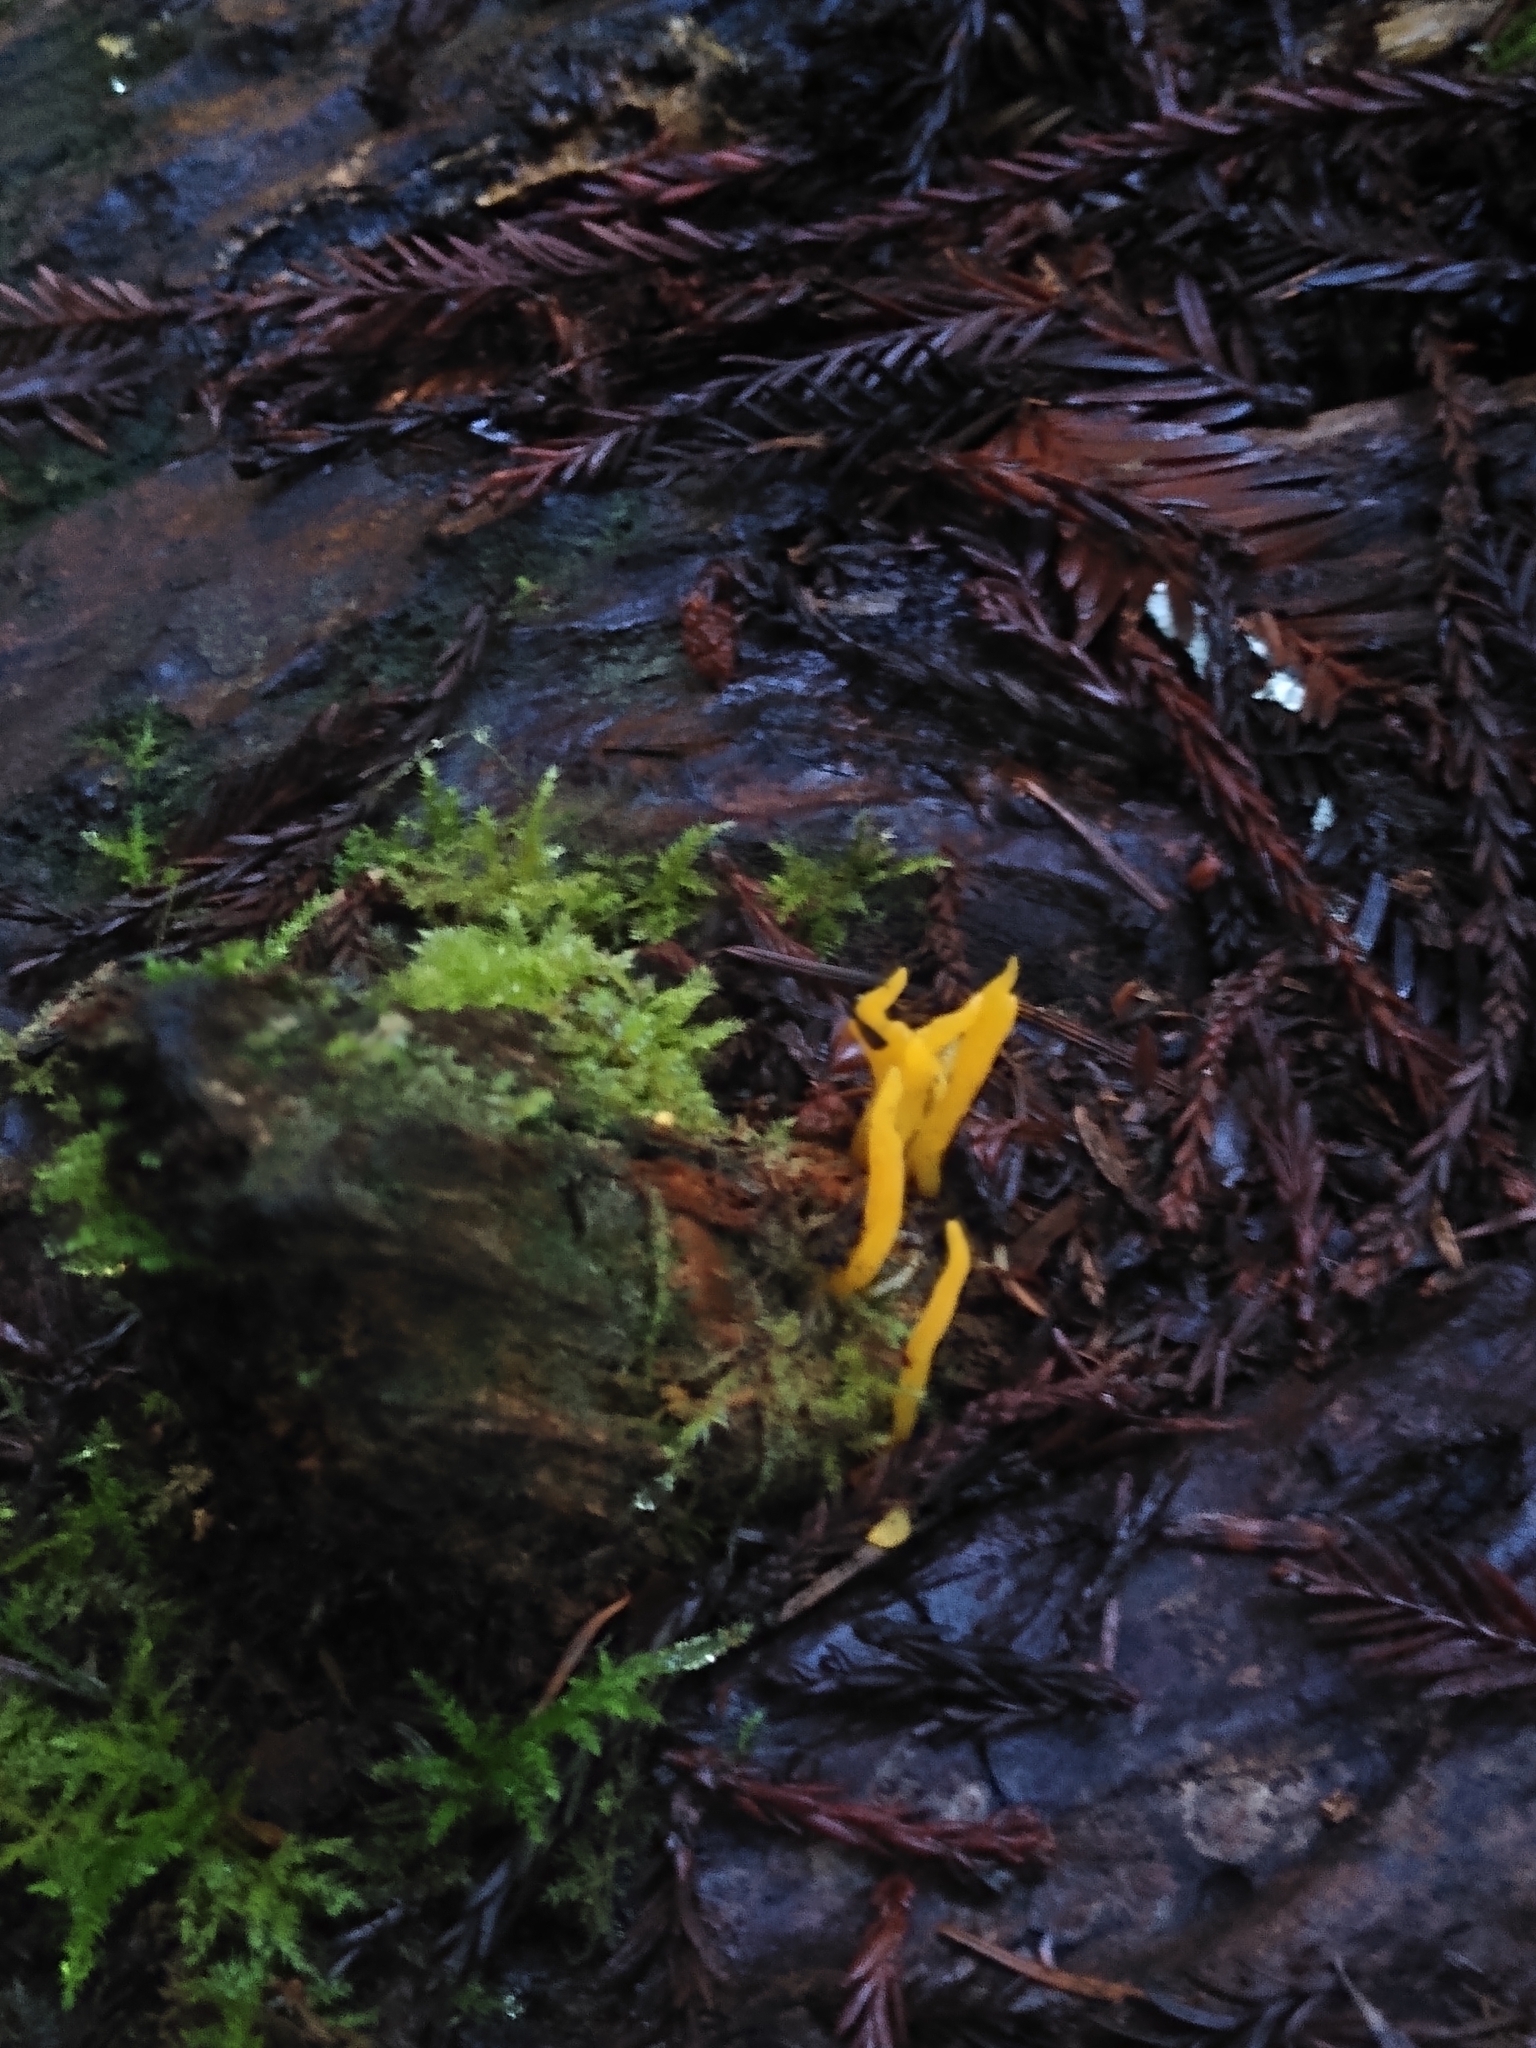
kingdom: Fungi
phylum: Basidiomycota
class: Dacrymycetes
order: Dacrymycetales
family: Dacrymycetaceae
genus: Calocera
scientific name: Calocera cornea
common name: Small stagshorn
